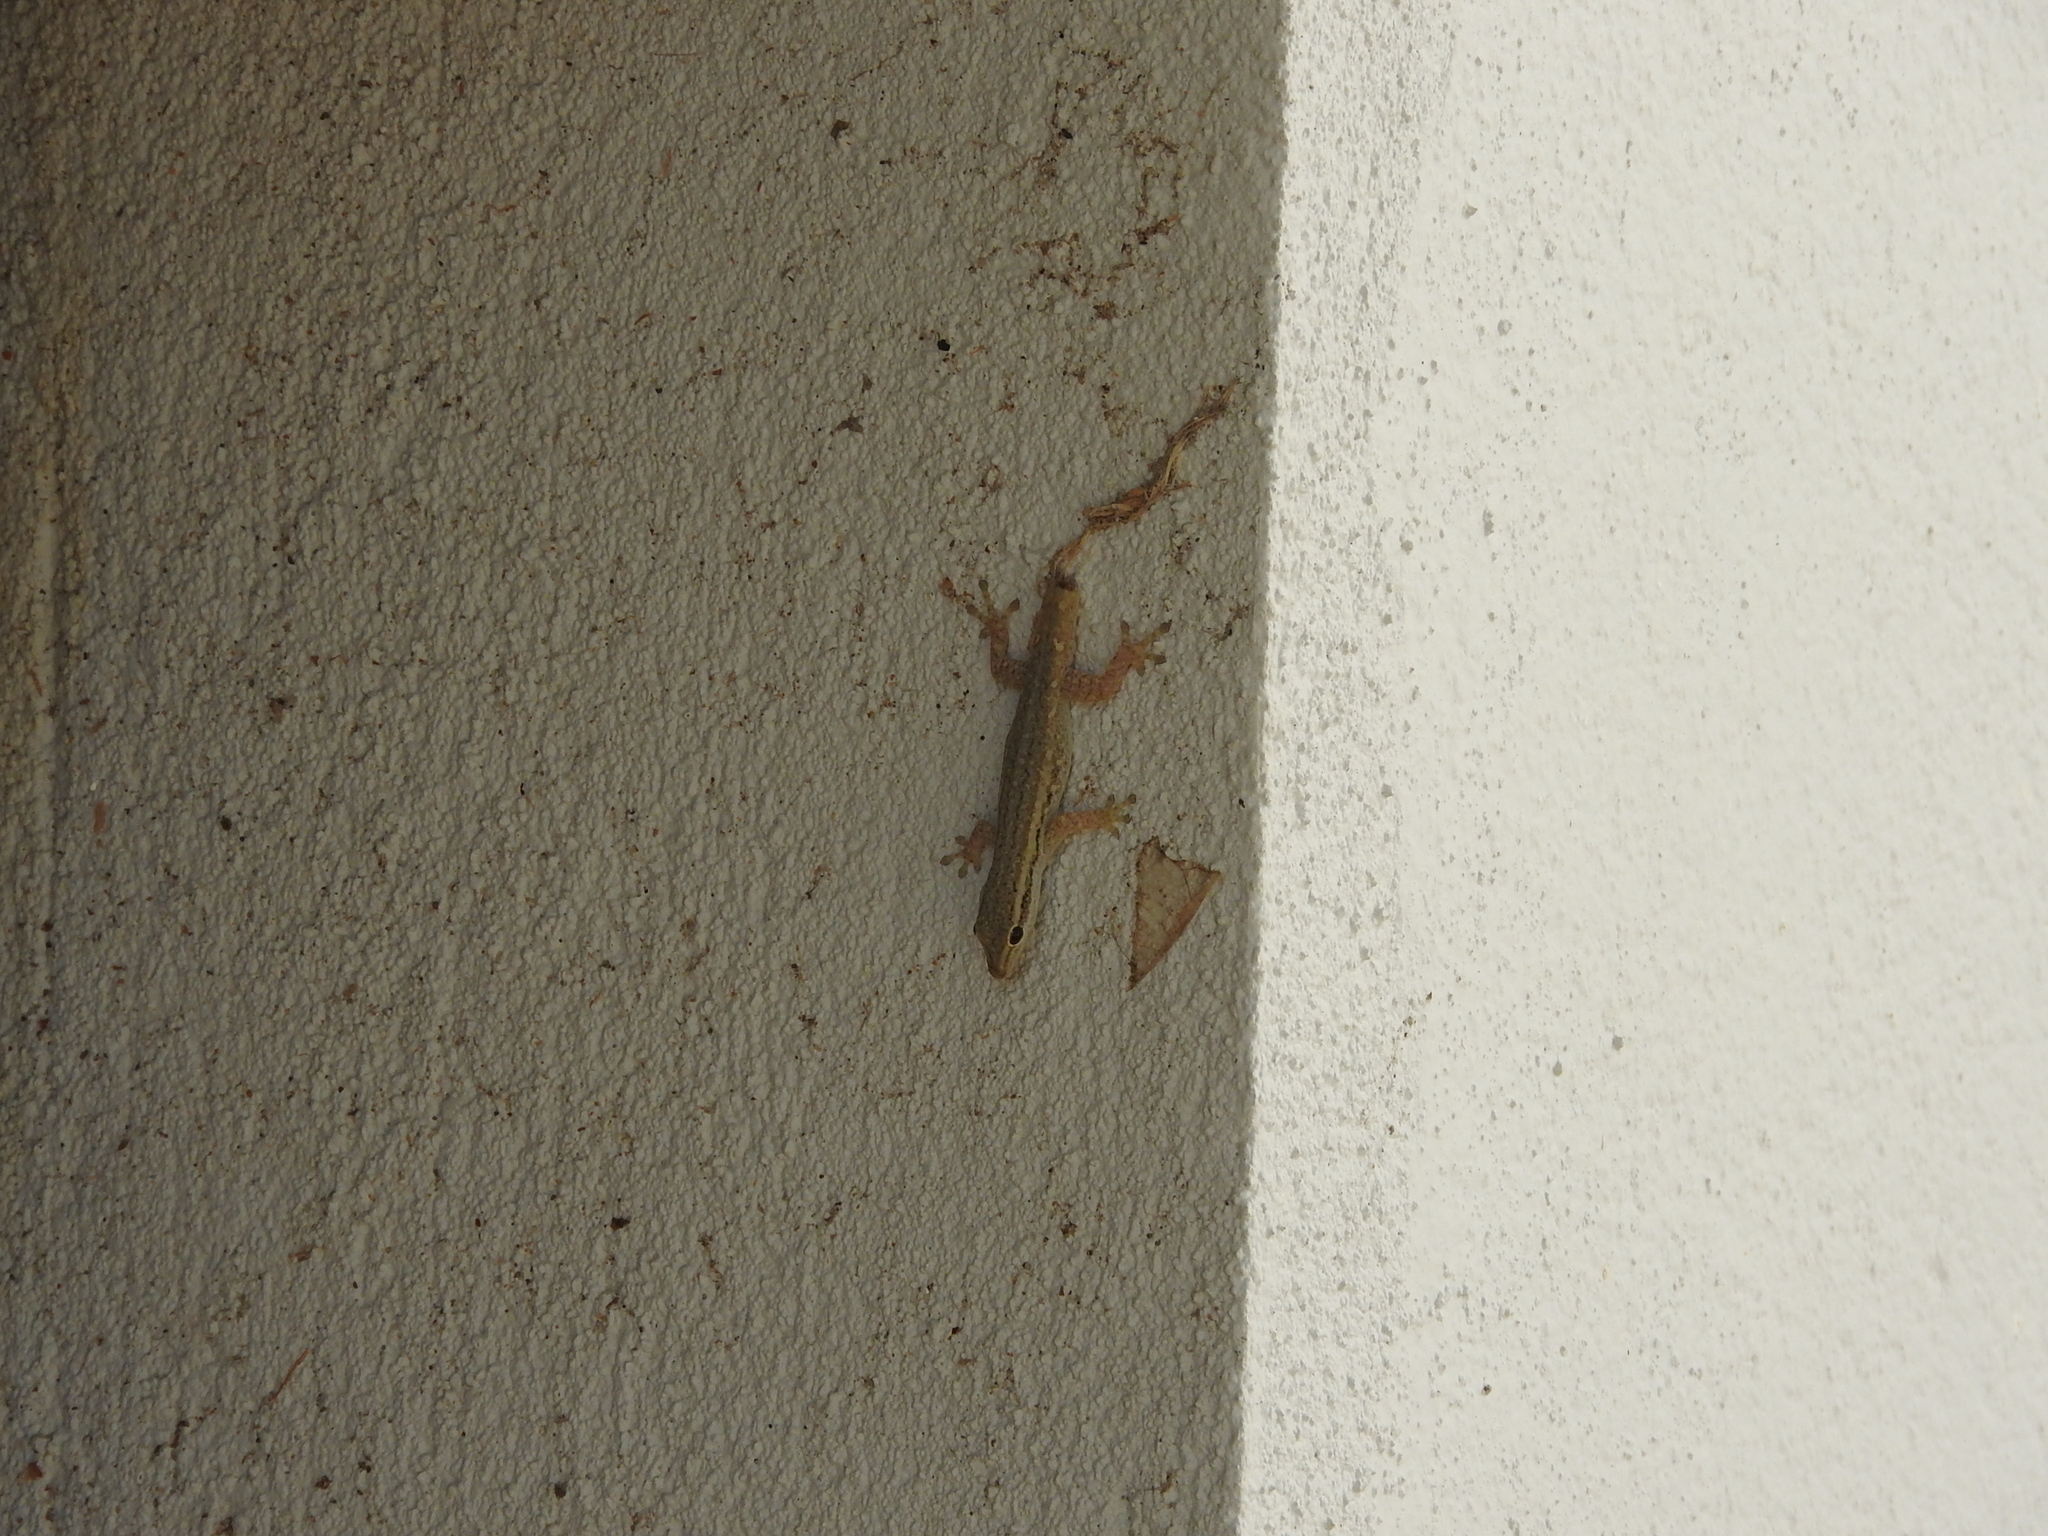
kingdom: Animalia
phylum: Chordata
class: Squamata
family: Gekkonidae
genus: Lygodactylus
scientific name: Lygodactylus capensis
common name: Cape dwarf gecko
